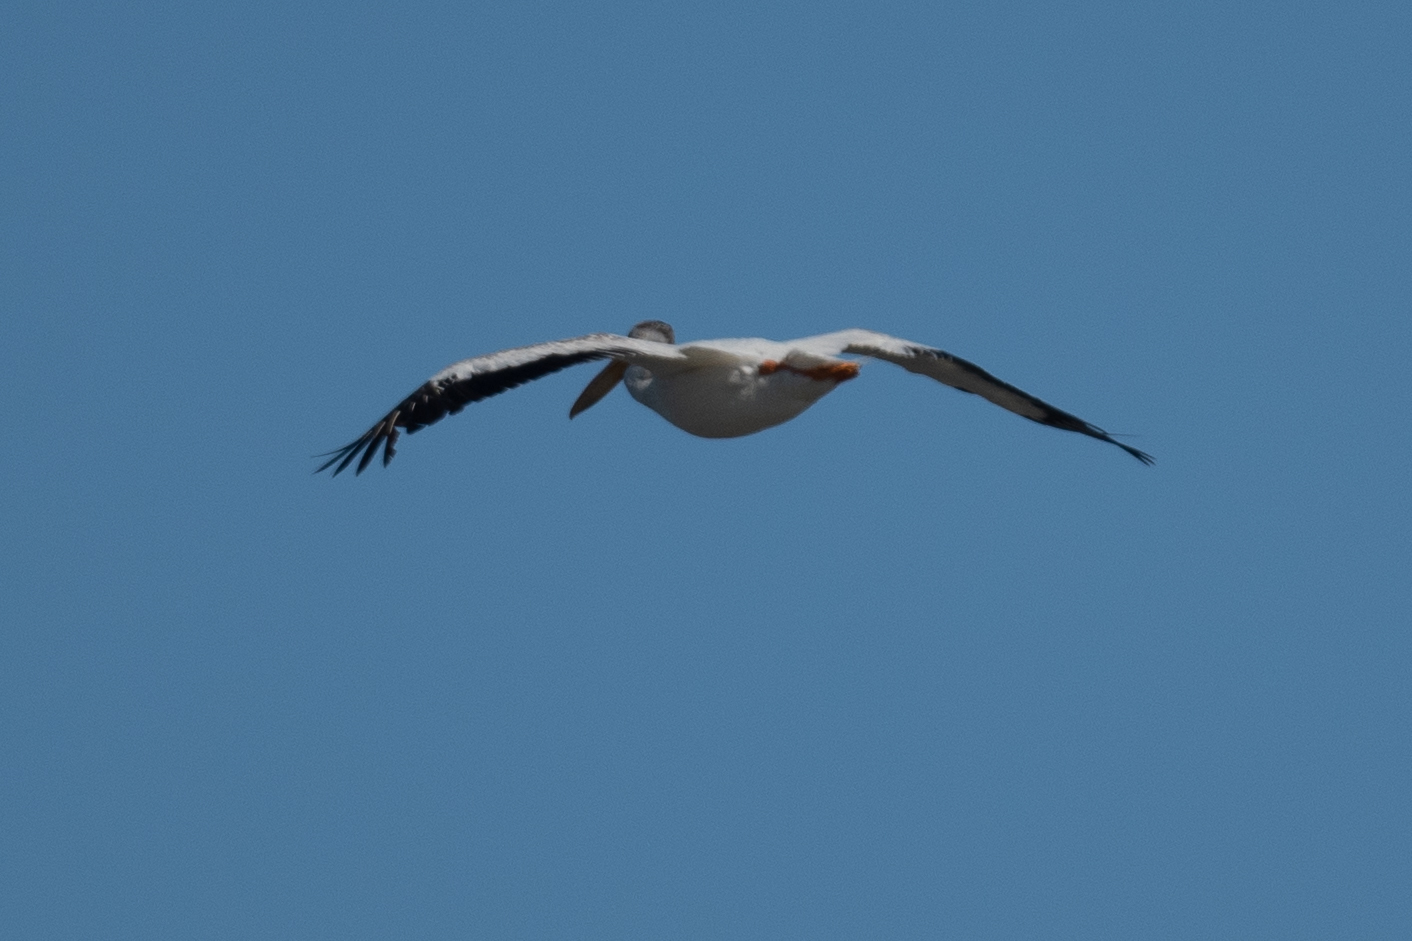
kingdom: Animalia
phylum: Chordata
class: Aves
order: Pelecaniformes
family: Pelecanidae
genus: Pelecanus
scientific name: Pelecanus erythrorhynchos
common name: American white pelican
